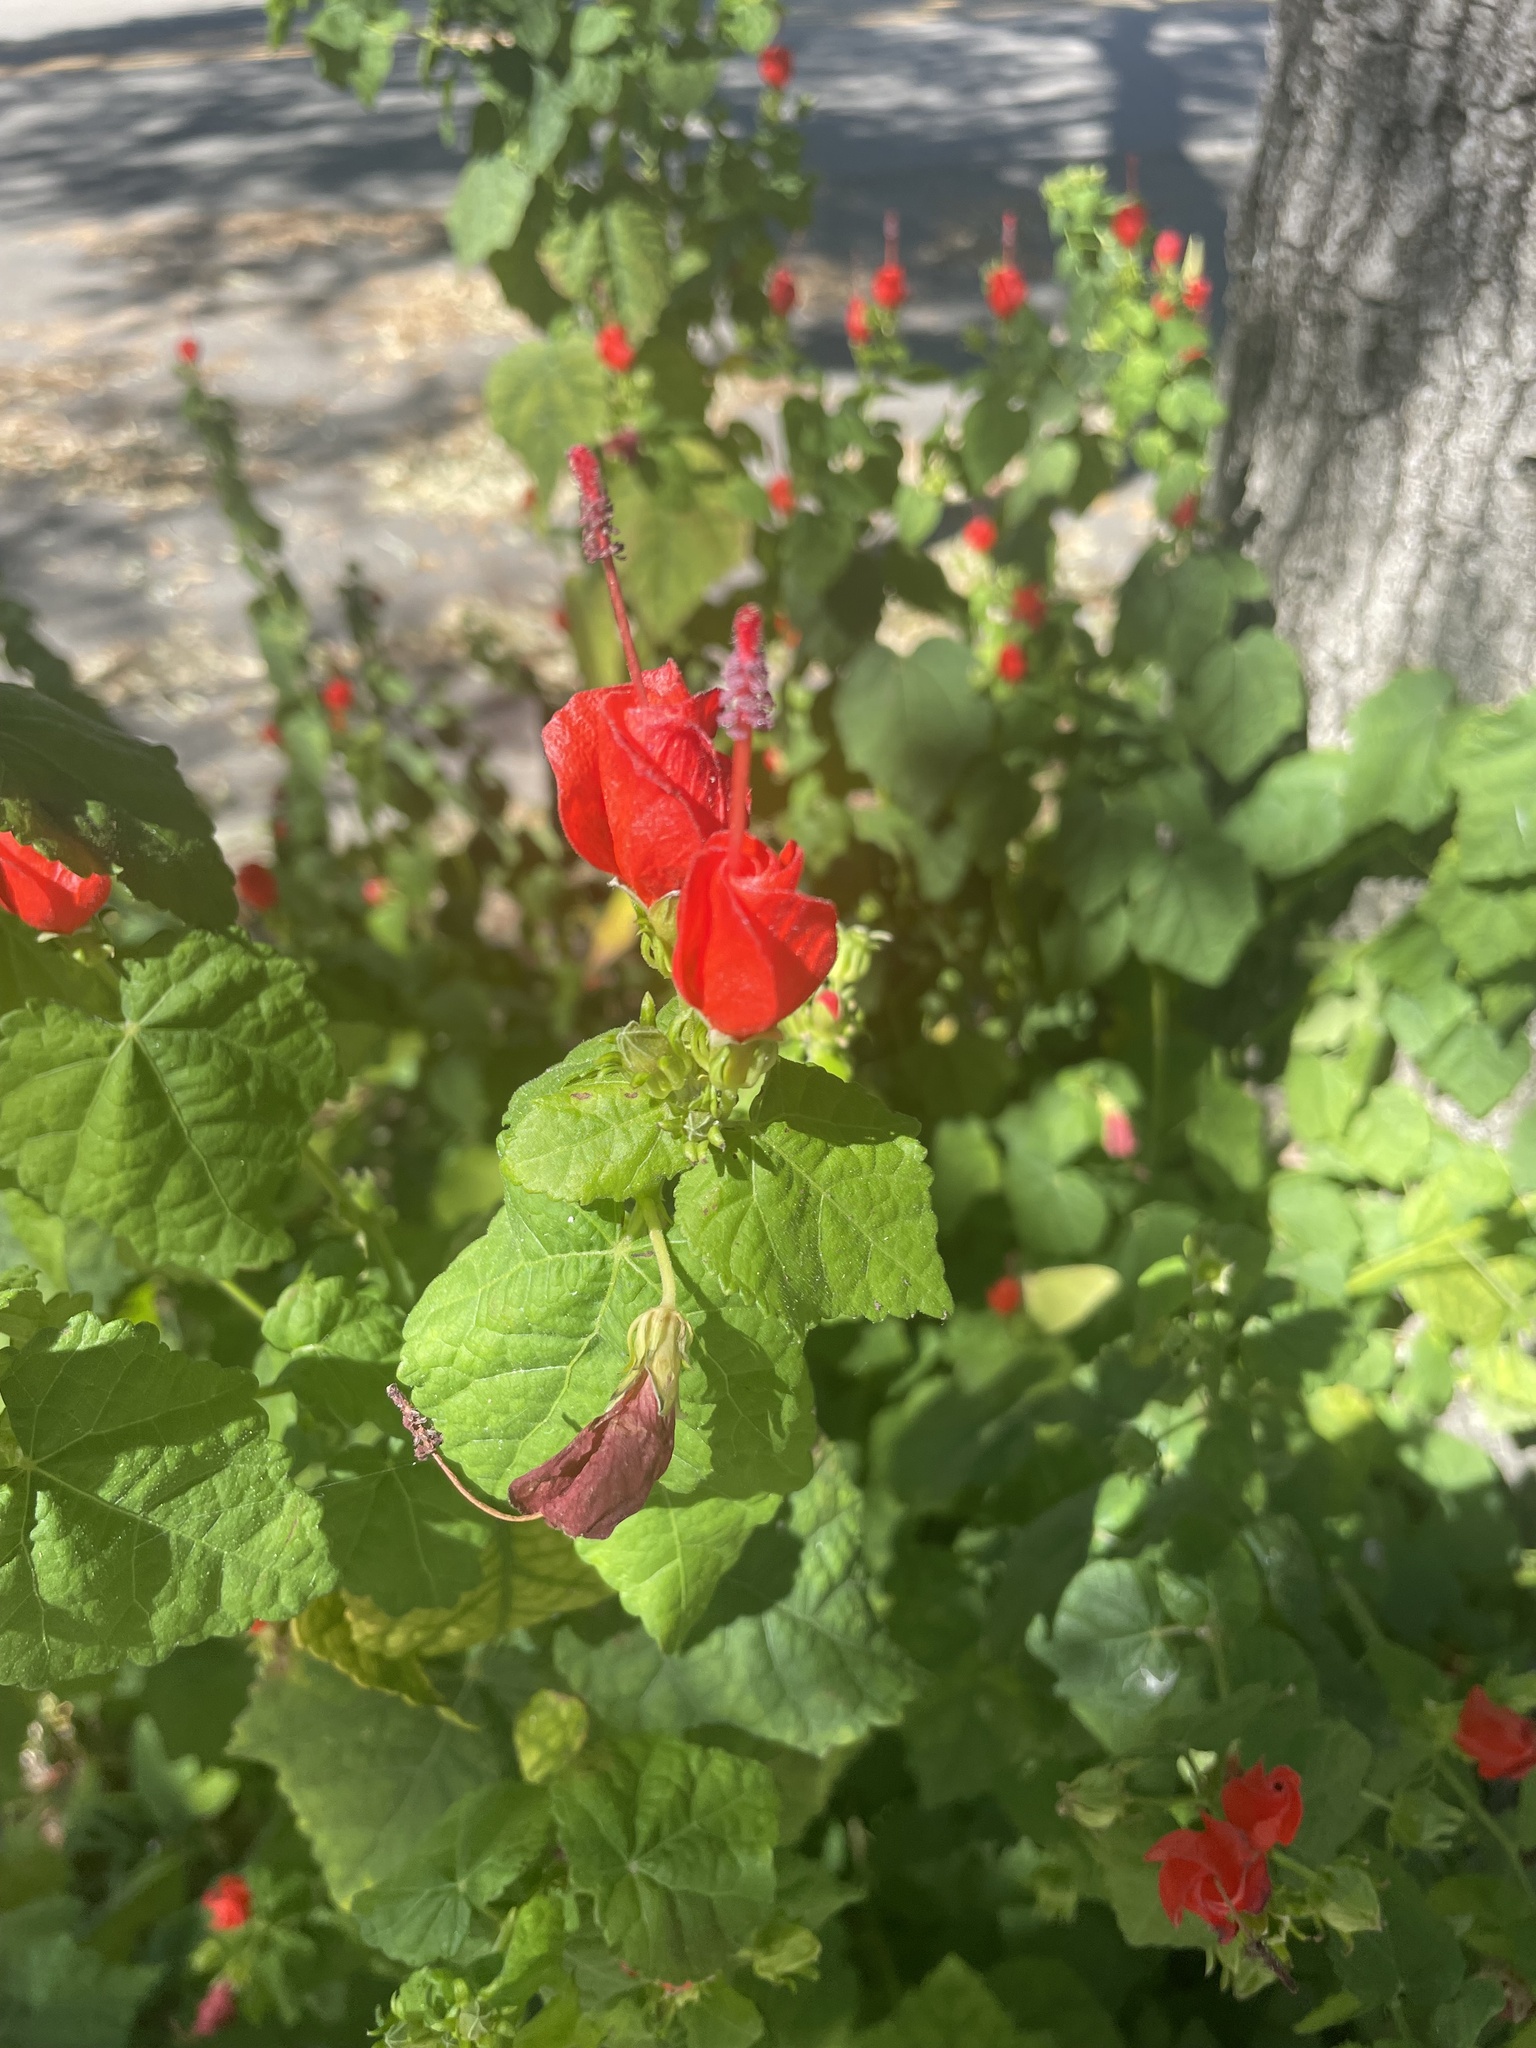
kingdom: Plantae
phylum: Tracheophyta
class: Magnoliopsida
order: Malvales
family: Malvaceae
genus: Malvaviscus
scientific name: Malvaviscus arboreus
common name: Wax mallow
